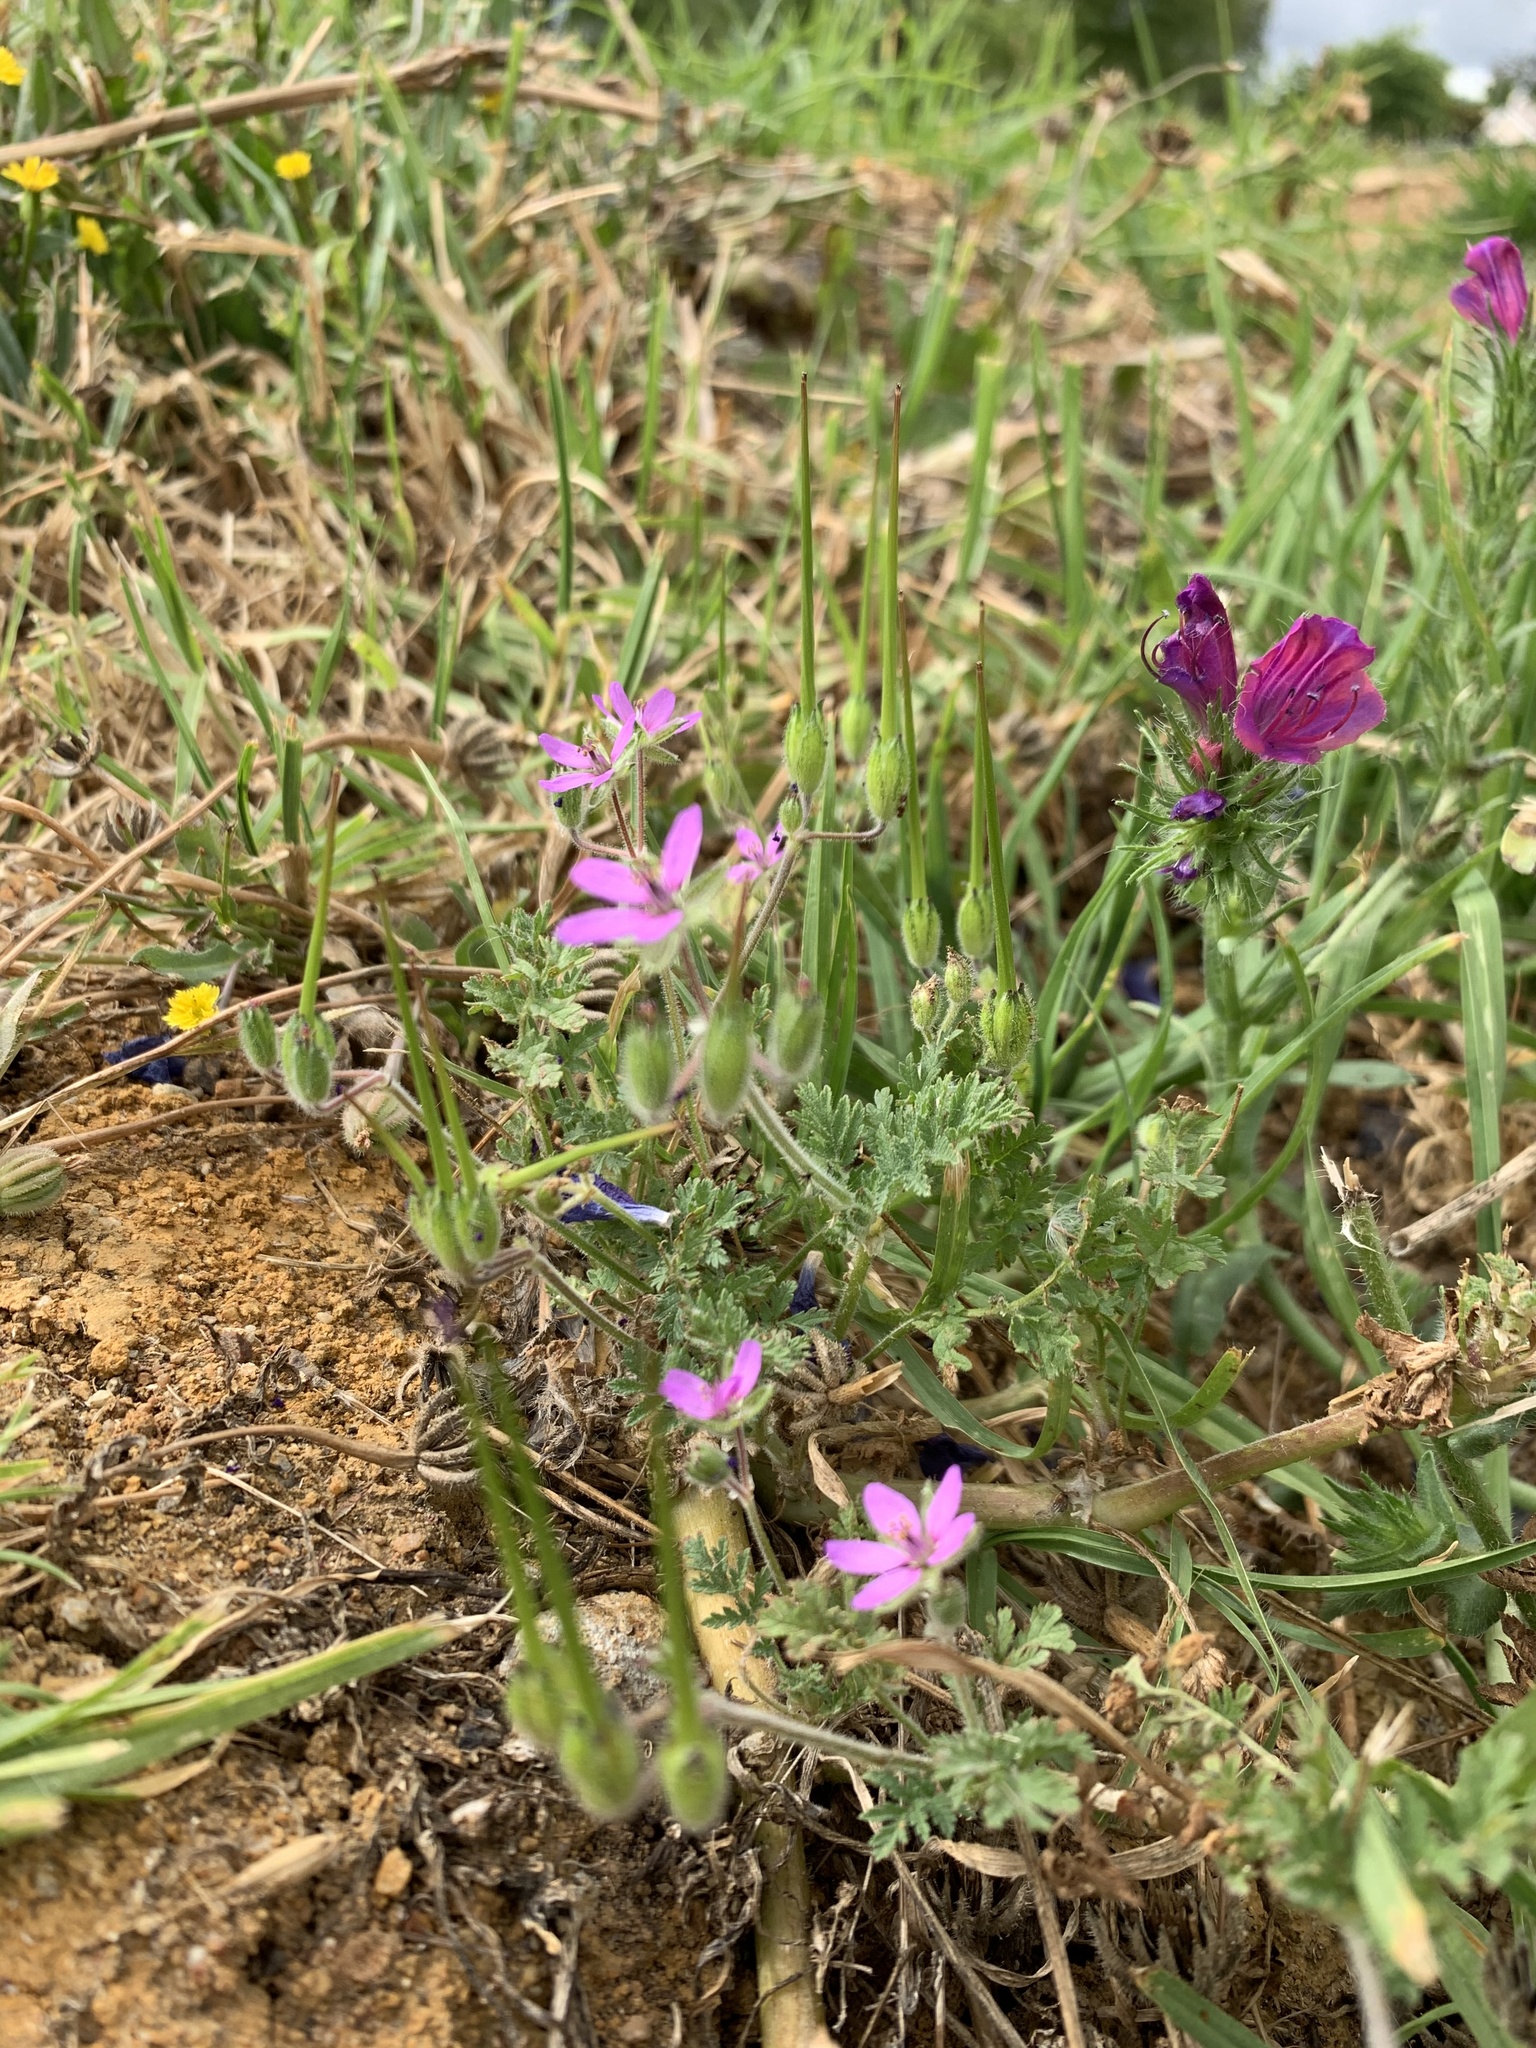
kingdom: Plantae
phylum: Tracheophyta
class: Magnoliopsida
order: Geraniales
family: Geraniaceae
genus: Erodium
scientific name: Erodium cicutarium
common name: Common stork's-bill
